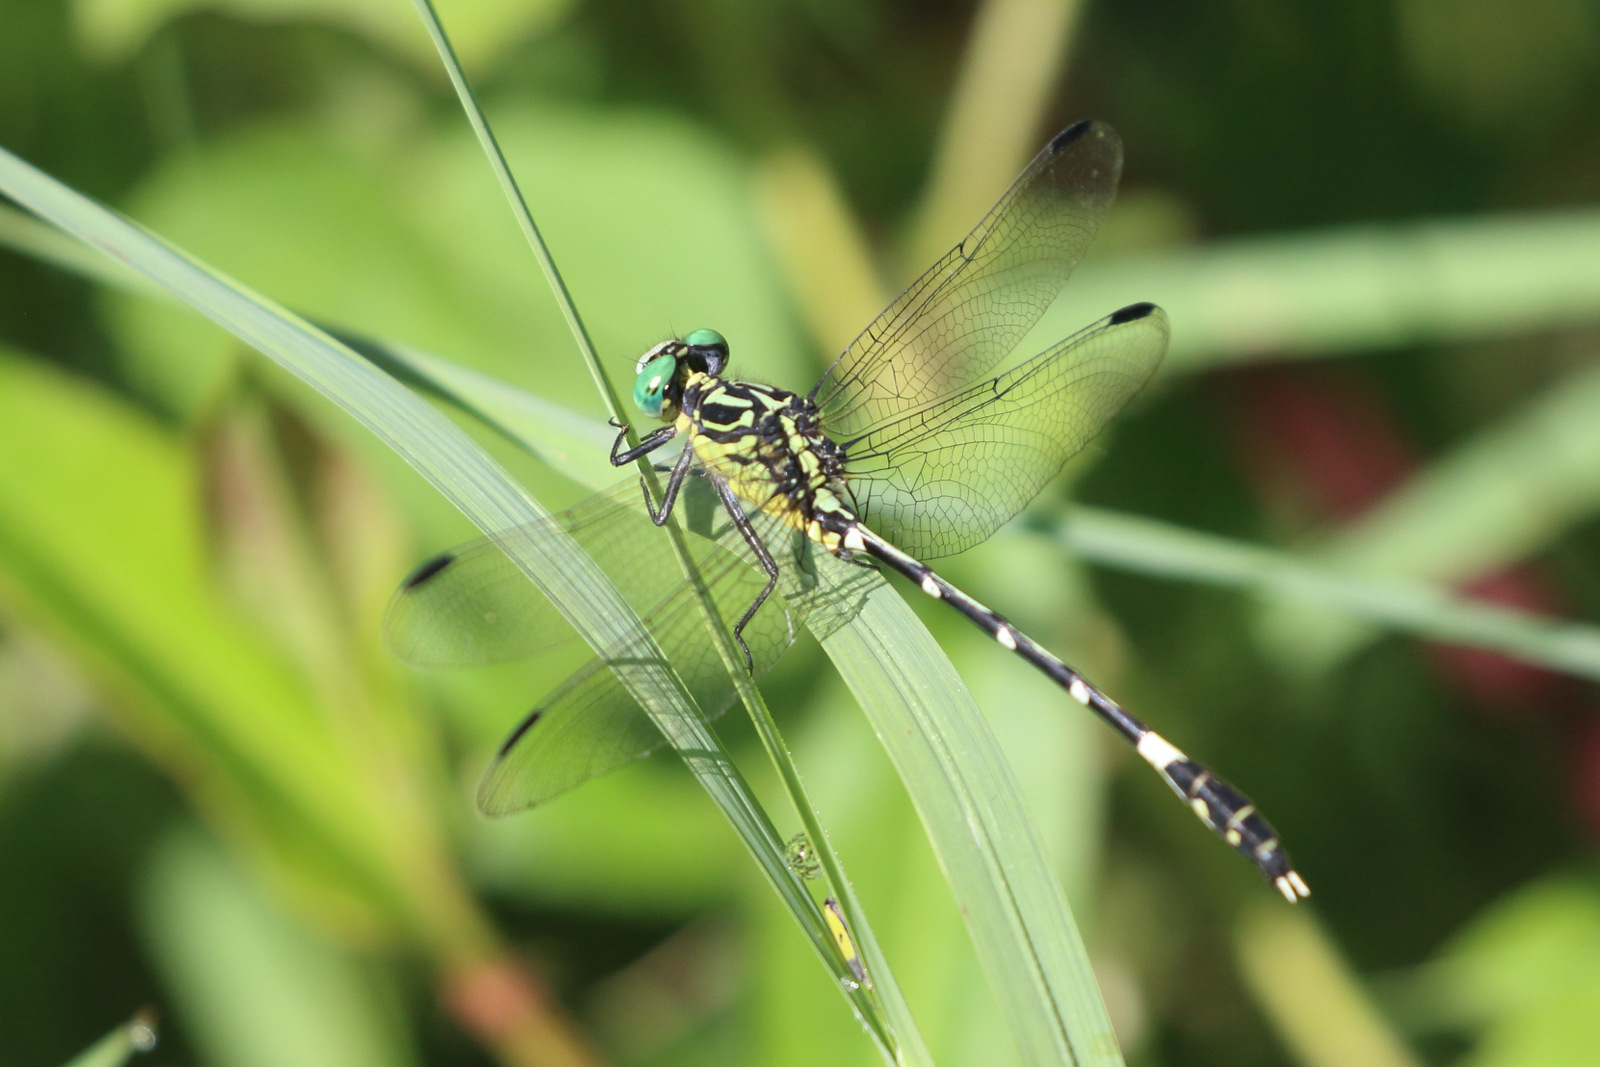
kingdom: Animalia
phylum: Arthropoda
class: Insecta
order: Odonata
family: Gomphidae
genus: Austrogomphus
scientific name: Austrogomphus amphiclitus
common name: Pale hunter
